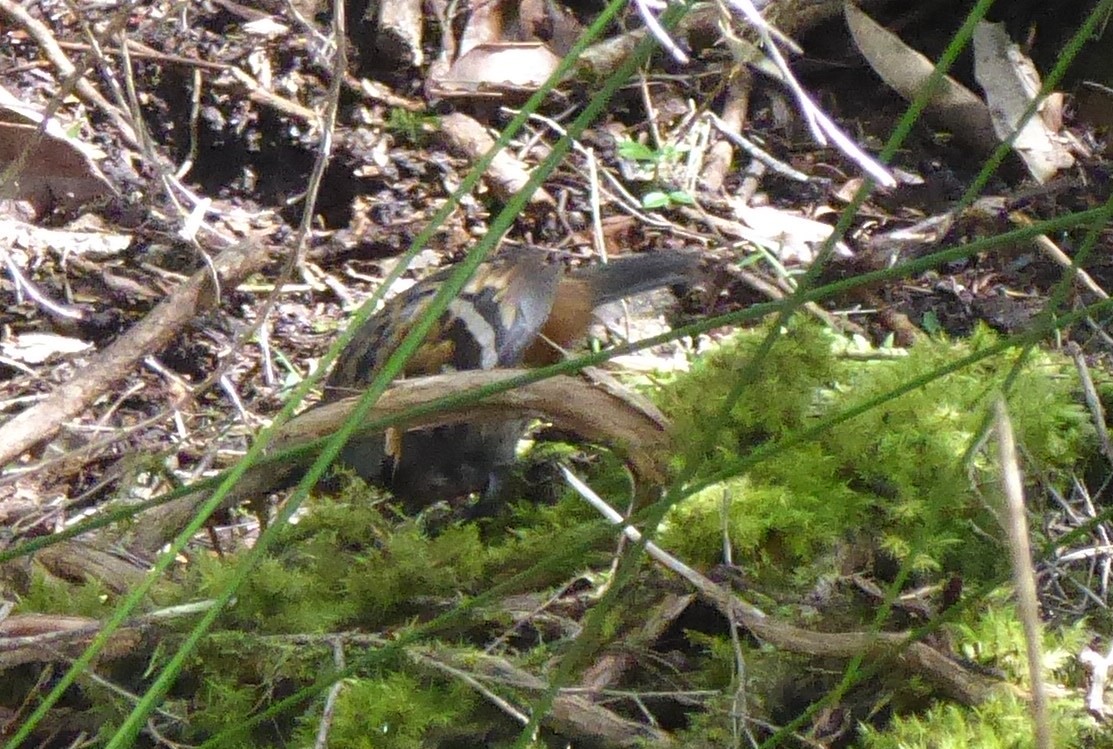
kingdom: Animalia
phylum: Chordata
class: Aves
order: Passeriformes
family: Orthonychidae
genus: Orthonyx
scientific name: Orthonyx temminckii
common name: Australian logrunner
